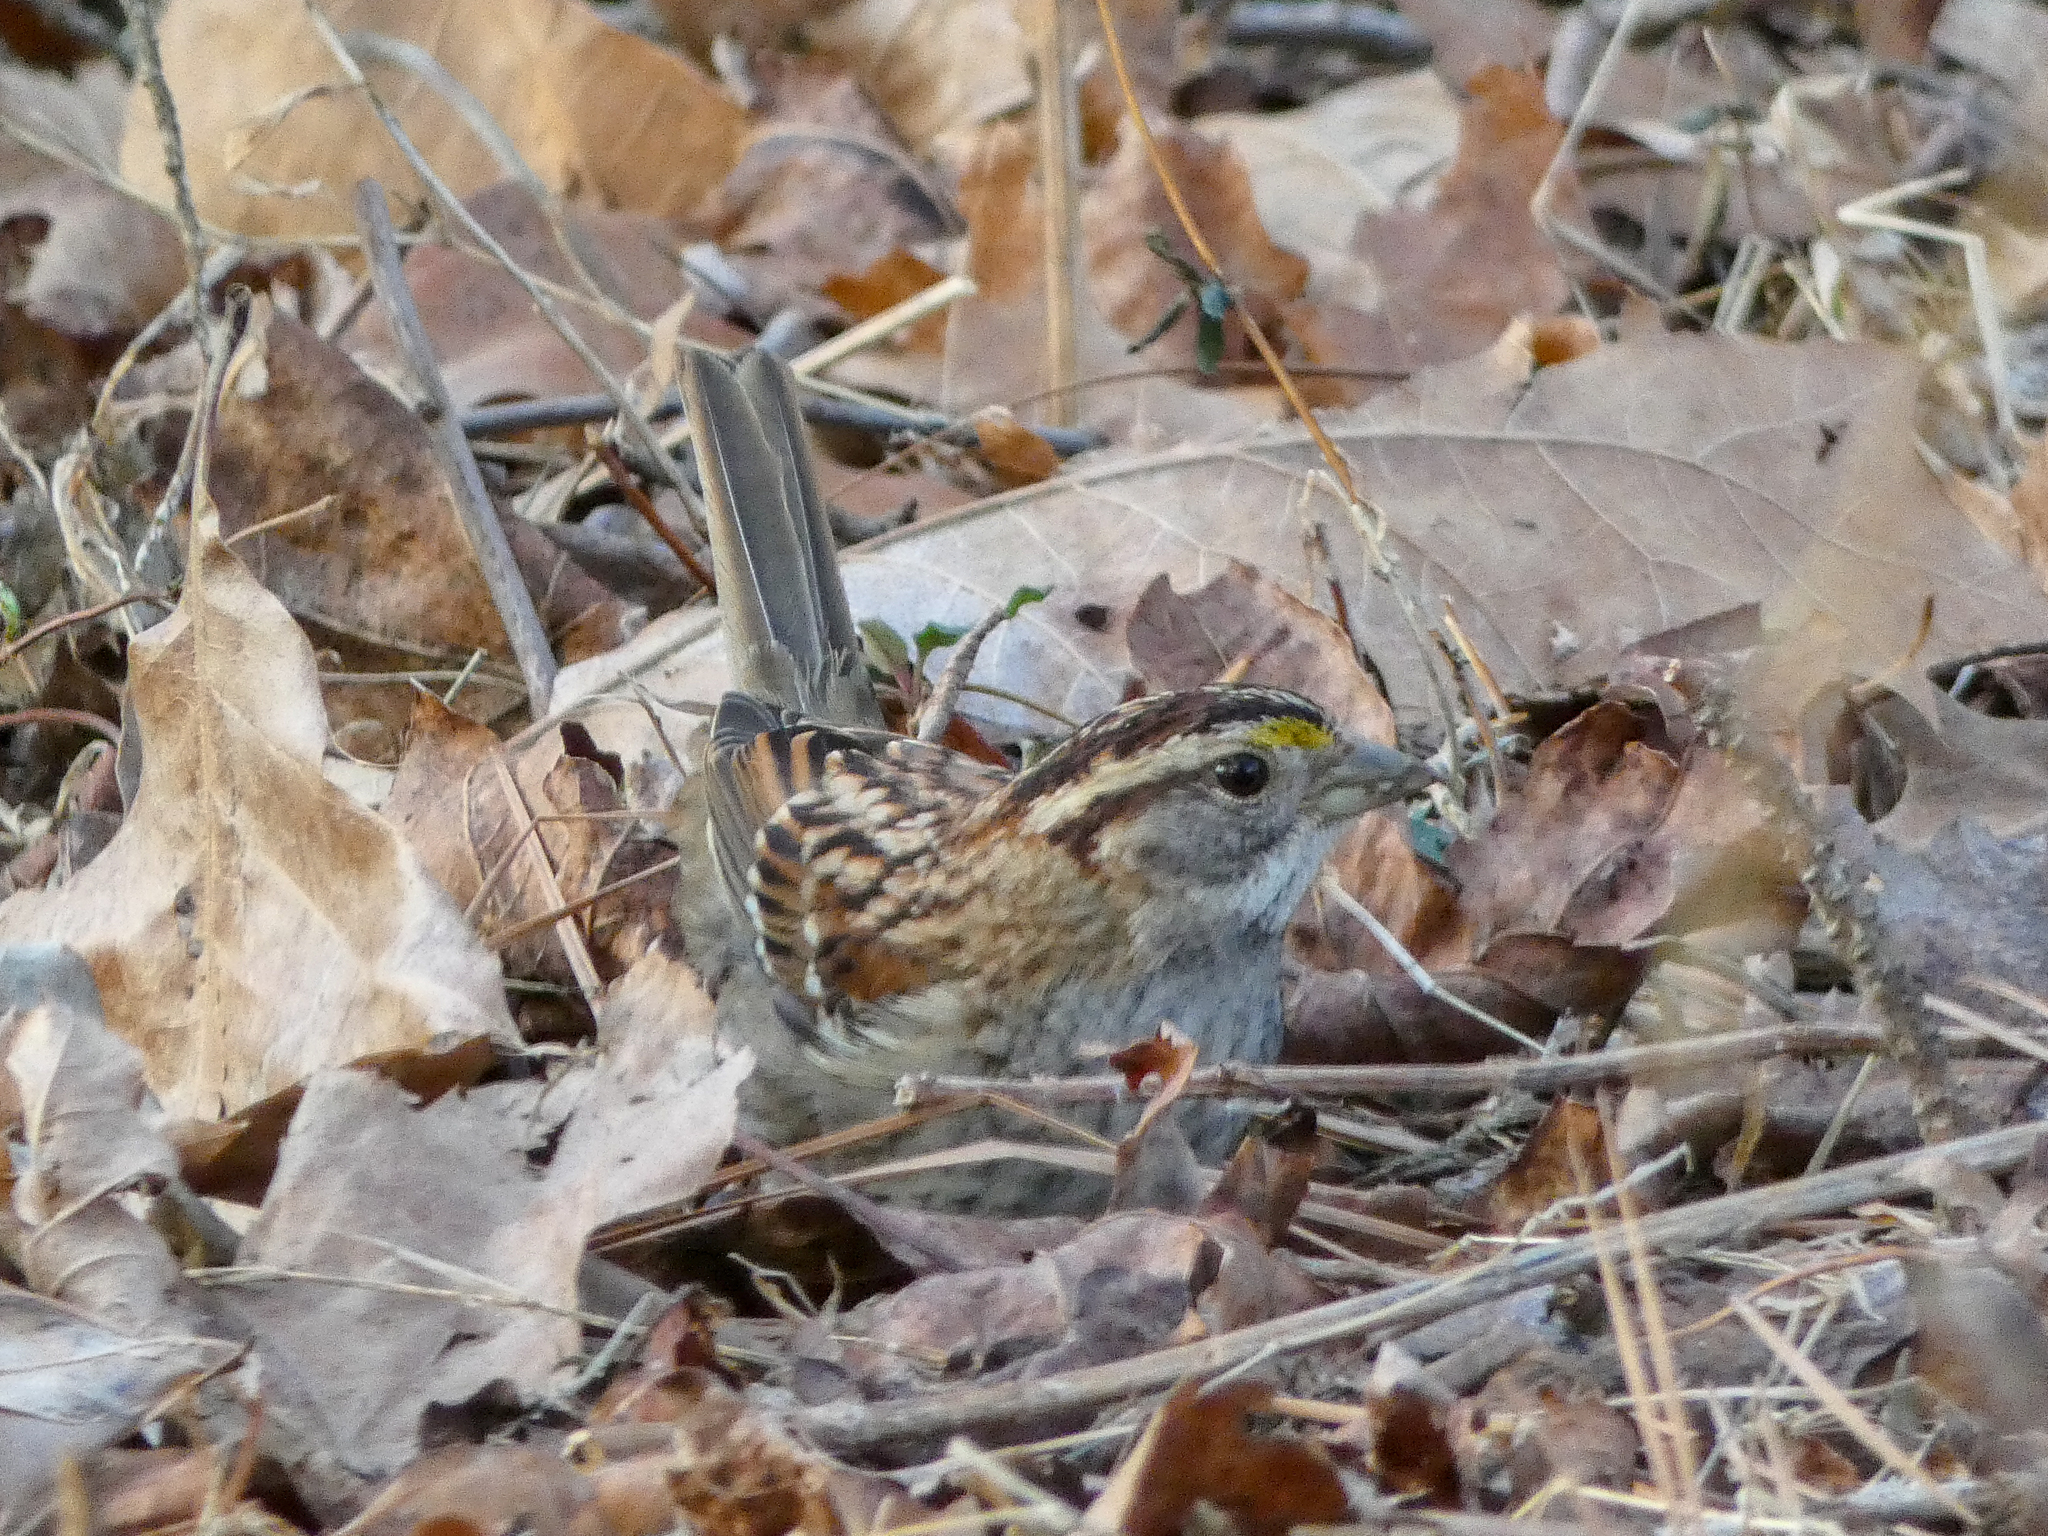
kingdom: Animalia
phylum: Chordata
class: Aves
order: Passeriformes
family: Passerellidae
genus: Zonotrichia
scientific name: Zonotrichia albicollis
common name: White-throated sparrow
